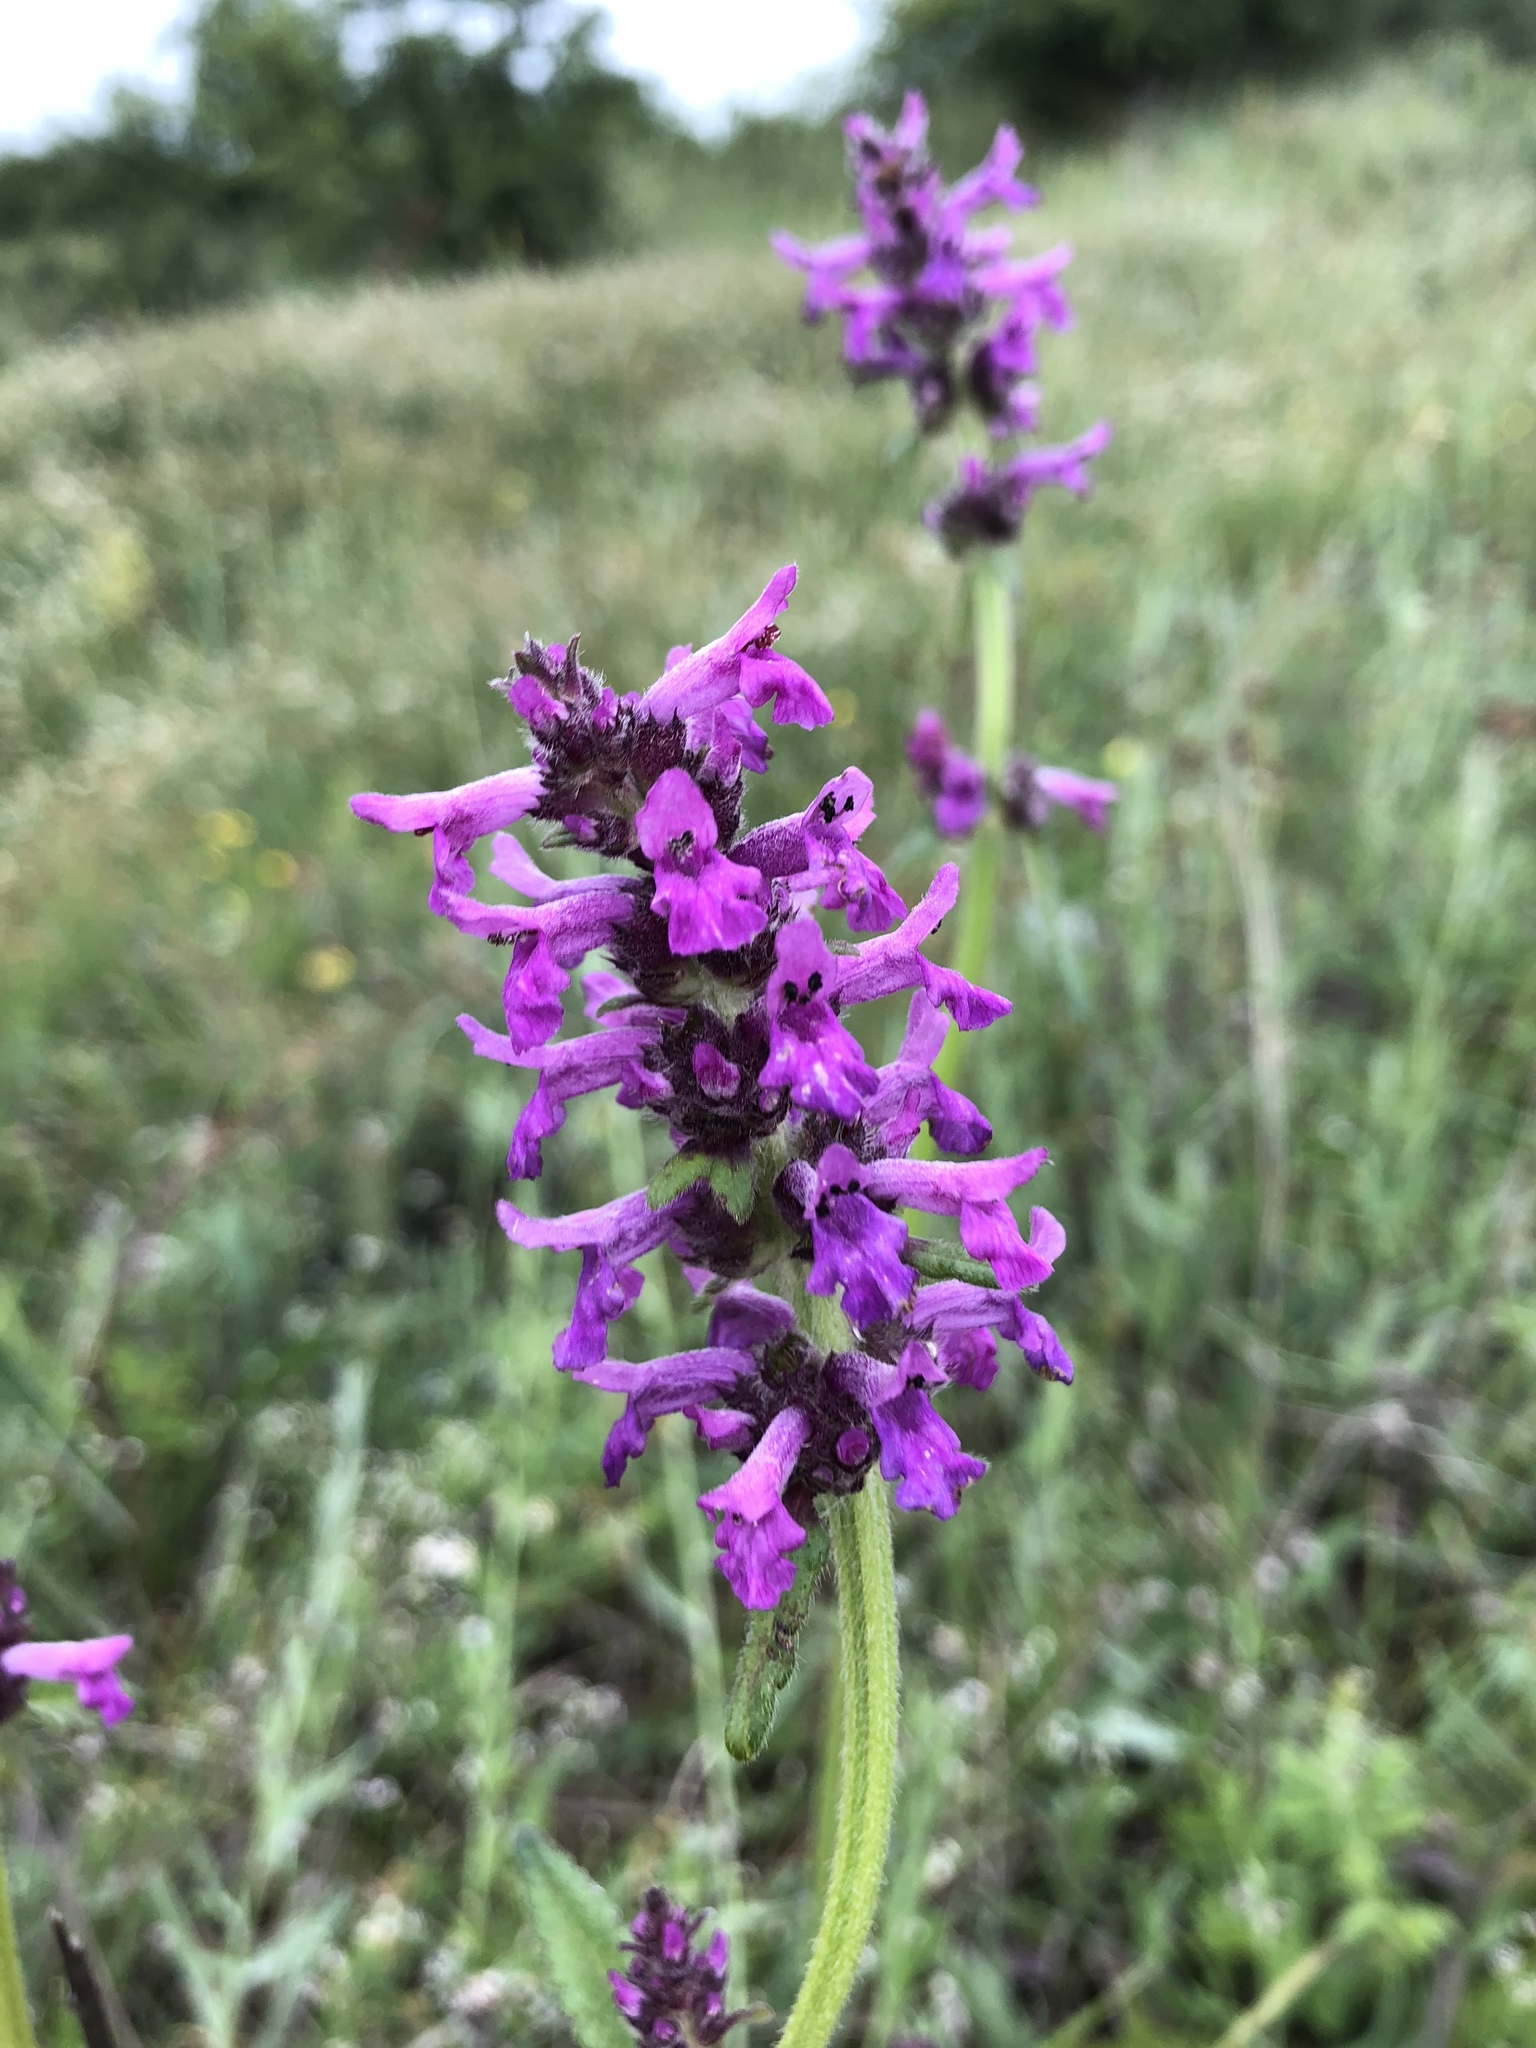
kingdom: Plantae
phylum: Tracheophyta
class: Magnoliopsida
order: Lamiales
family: Lamiaceae
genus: Betonica
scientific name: Betonica officinalis
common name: Bishop's-wort
